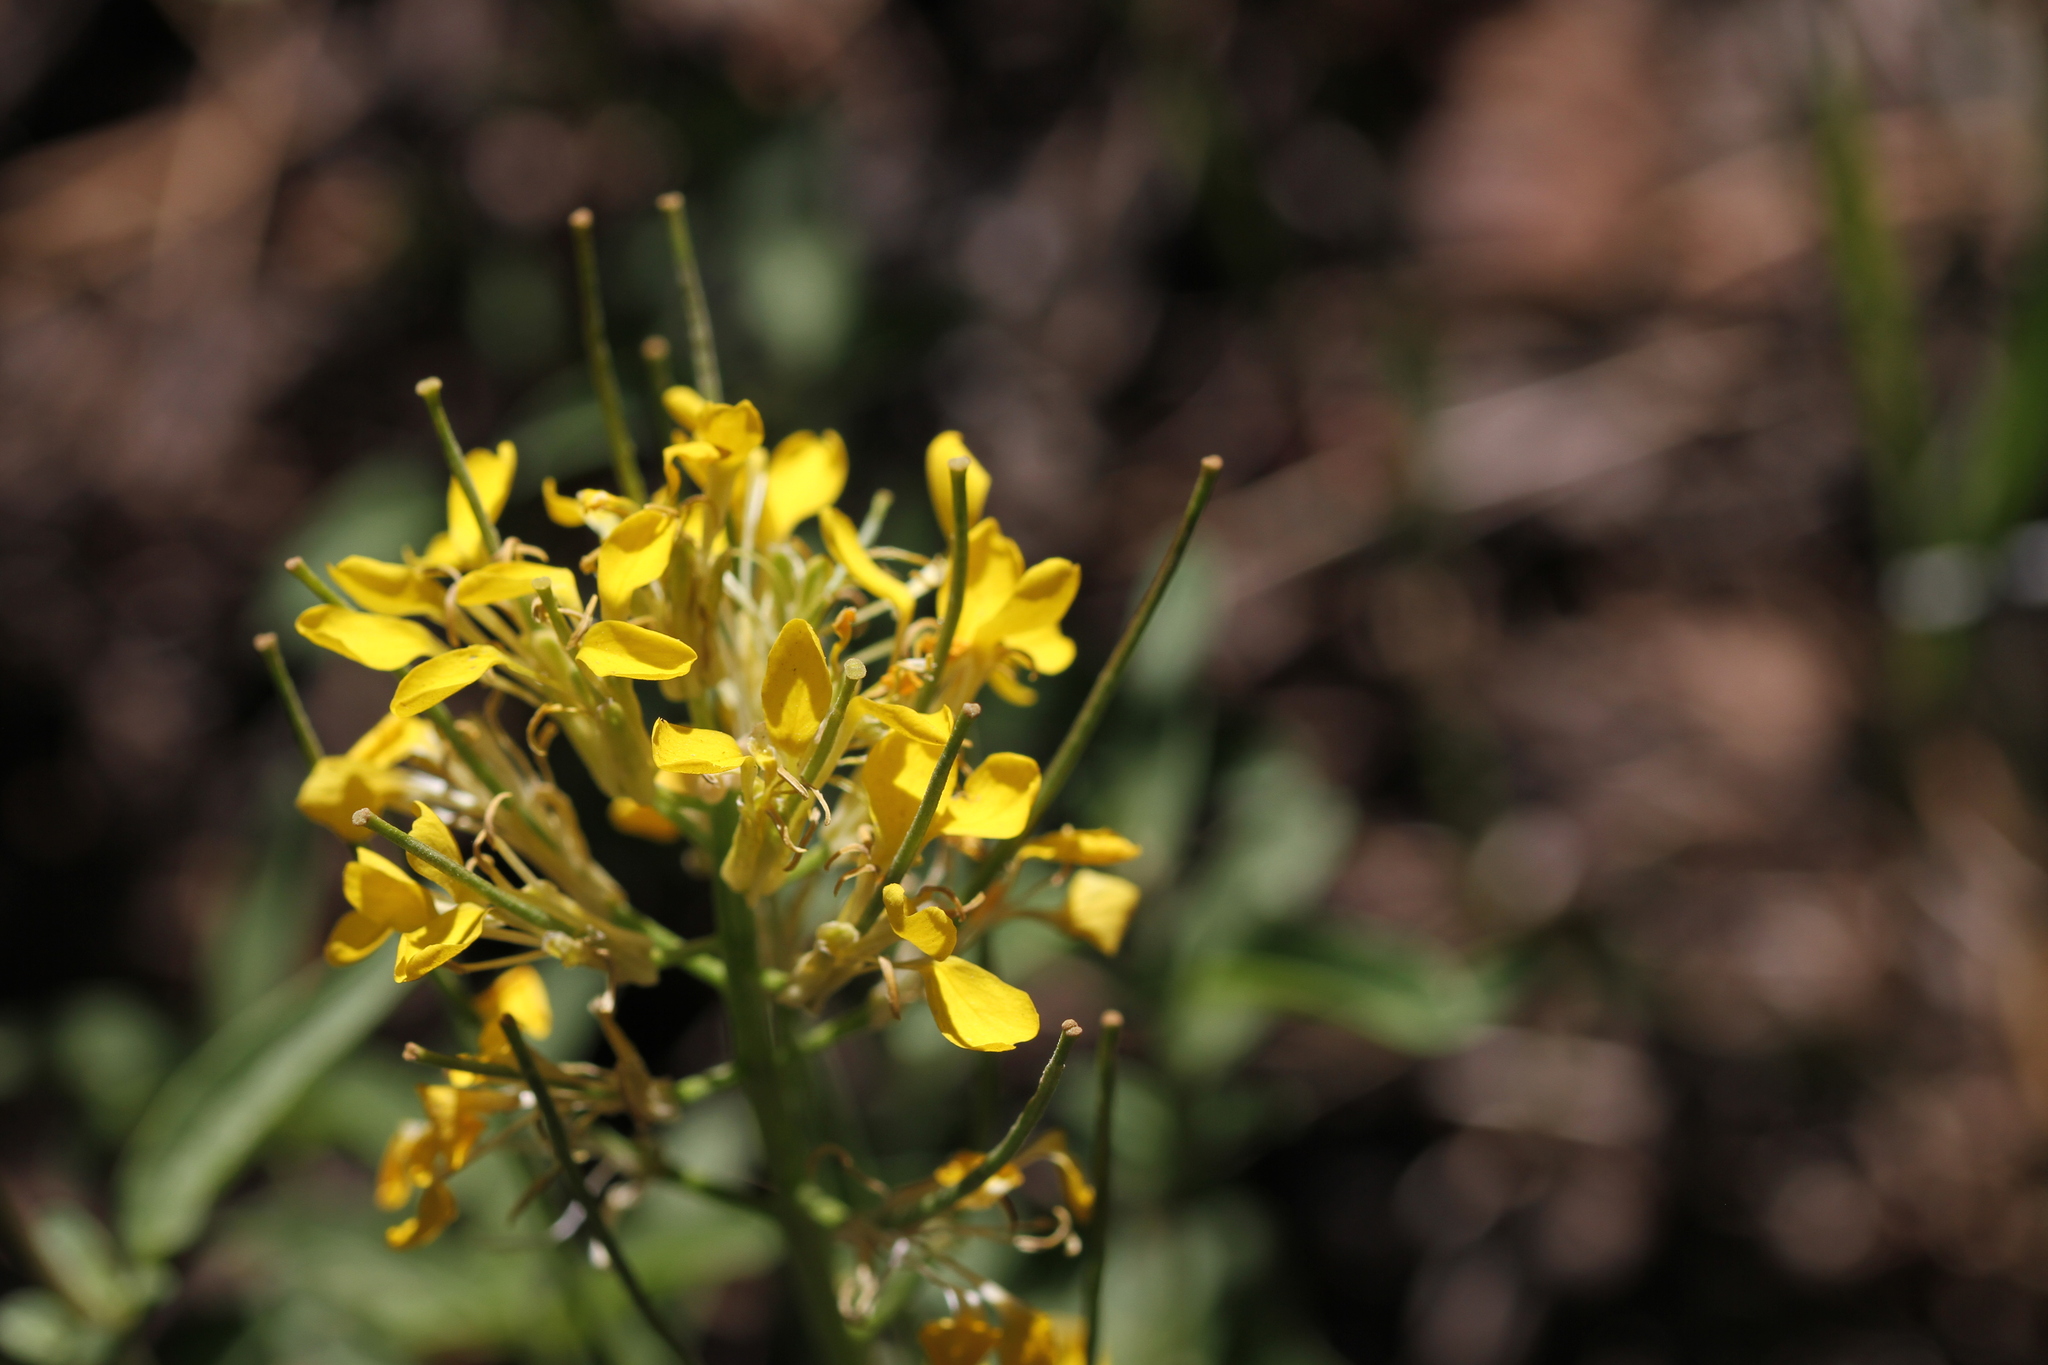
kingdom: Plantae
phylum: Tracheophyta
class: Magnoliopsida
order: Brassicales
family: Brassicaceae
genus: Erysimum
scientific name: Erysimum capitatum
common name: Western wallflower
